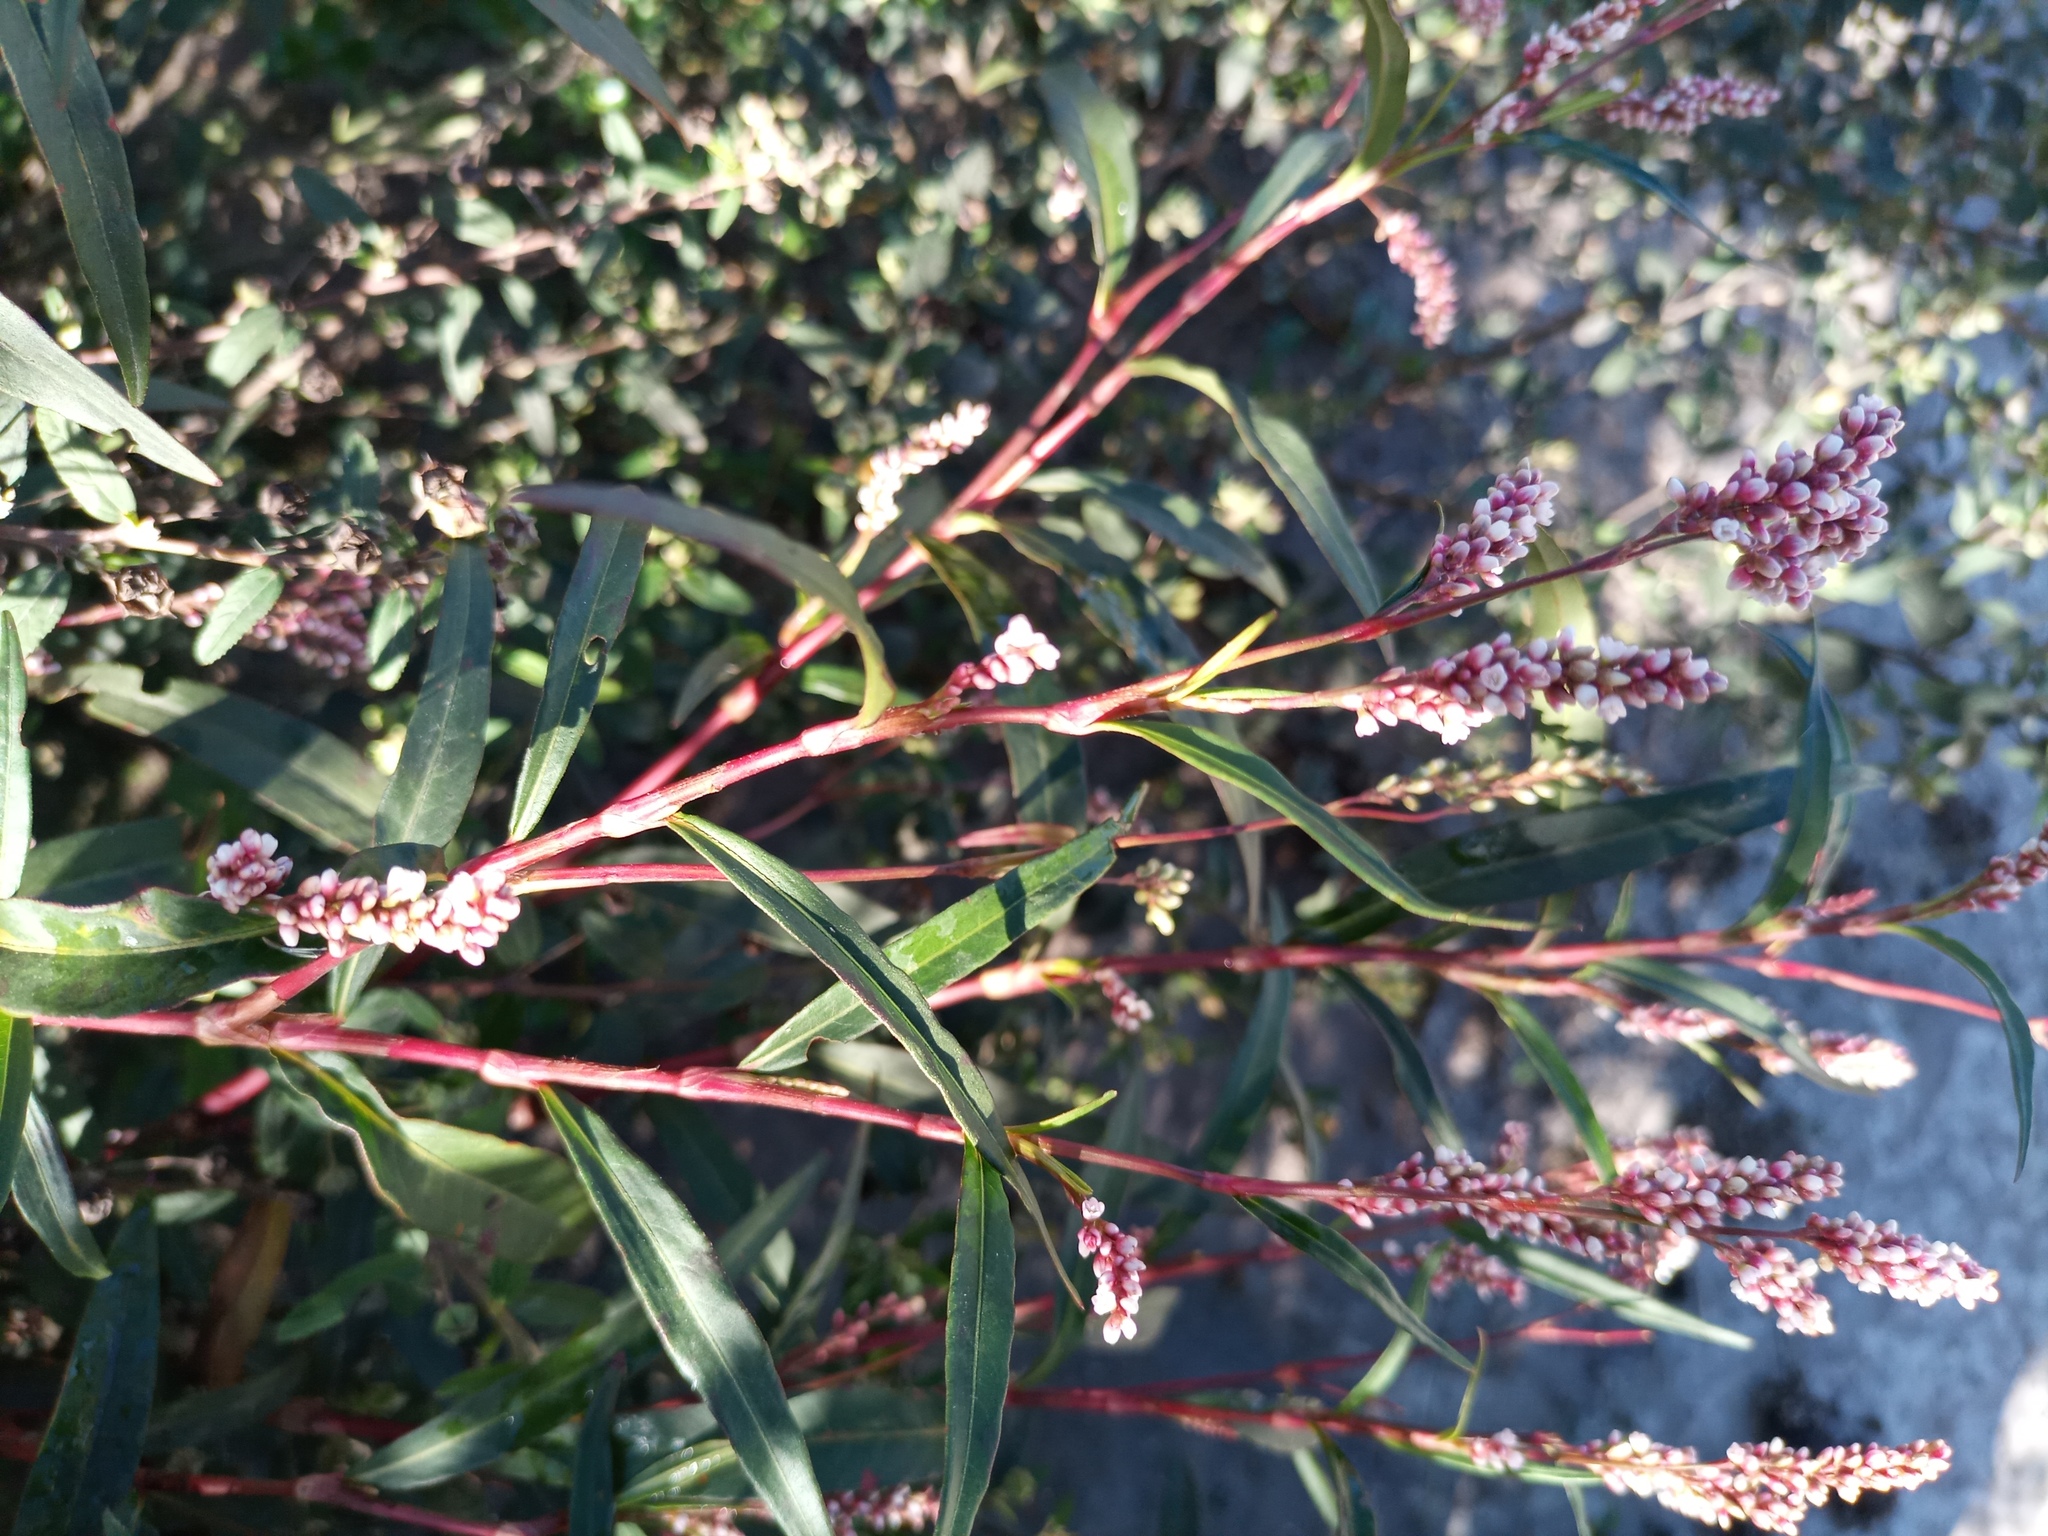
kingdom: Plantae
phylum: Tracheophyta
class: Magnoliopsida
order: Caryophyllales
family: Polygonaceae
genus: Persicaria
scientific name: Persicaria punctata
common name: Dotted smartweed
